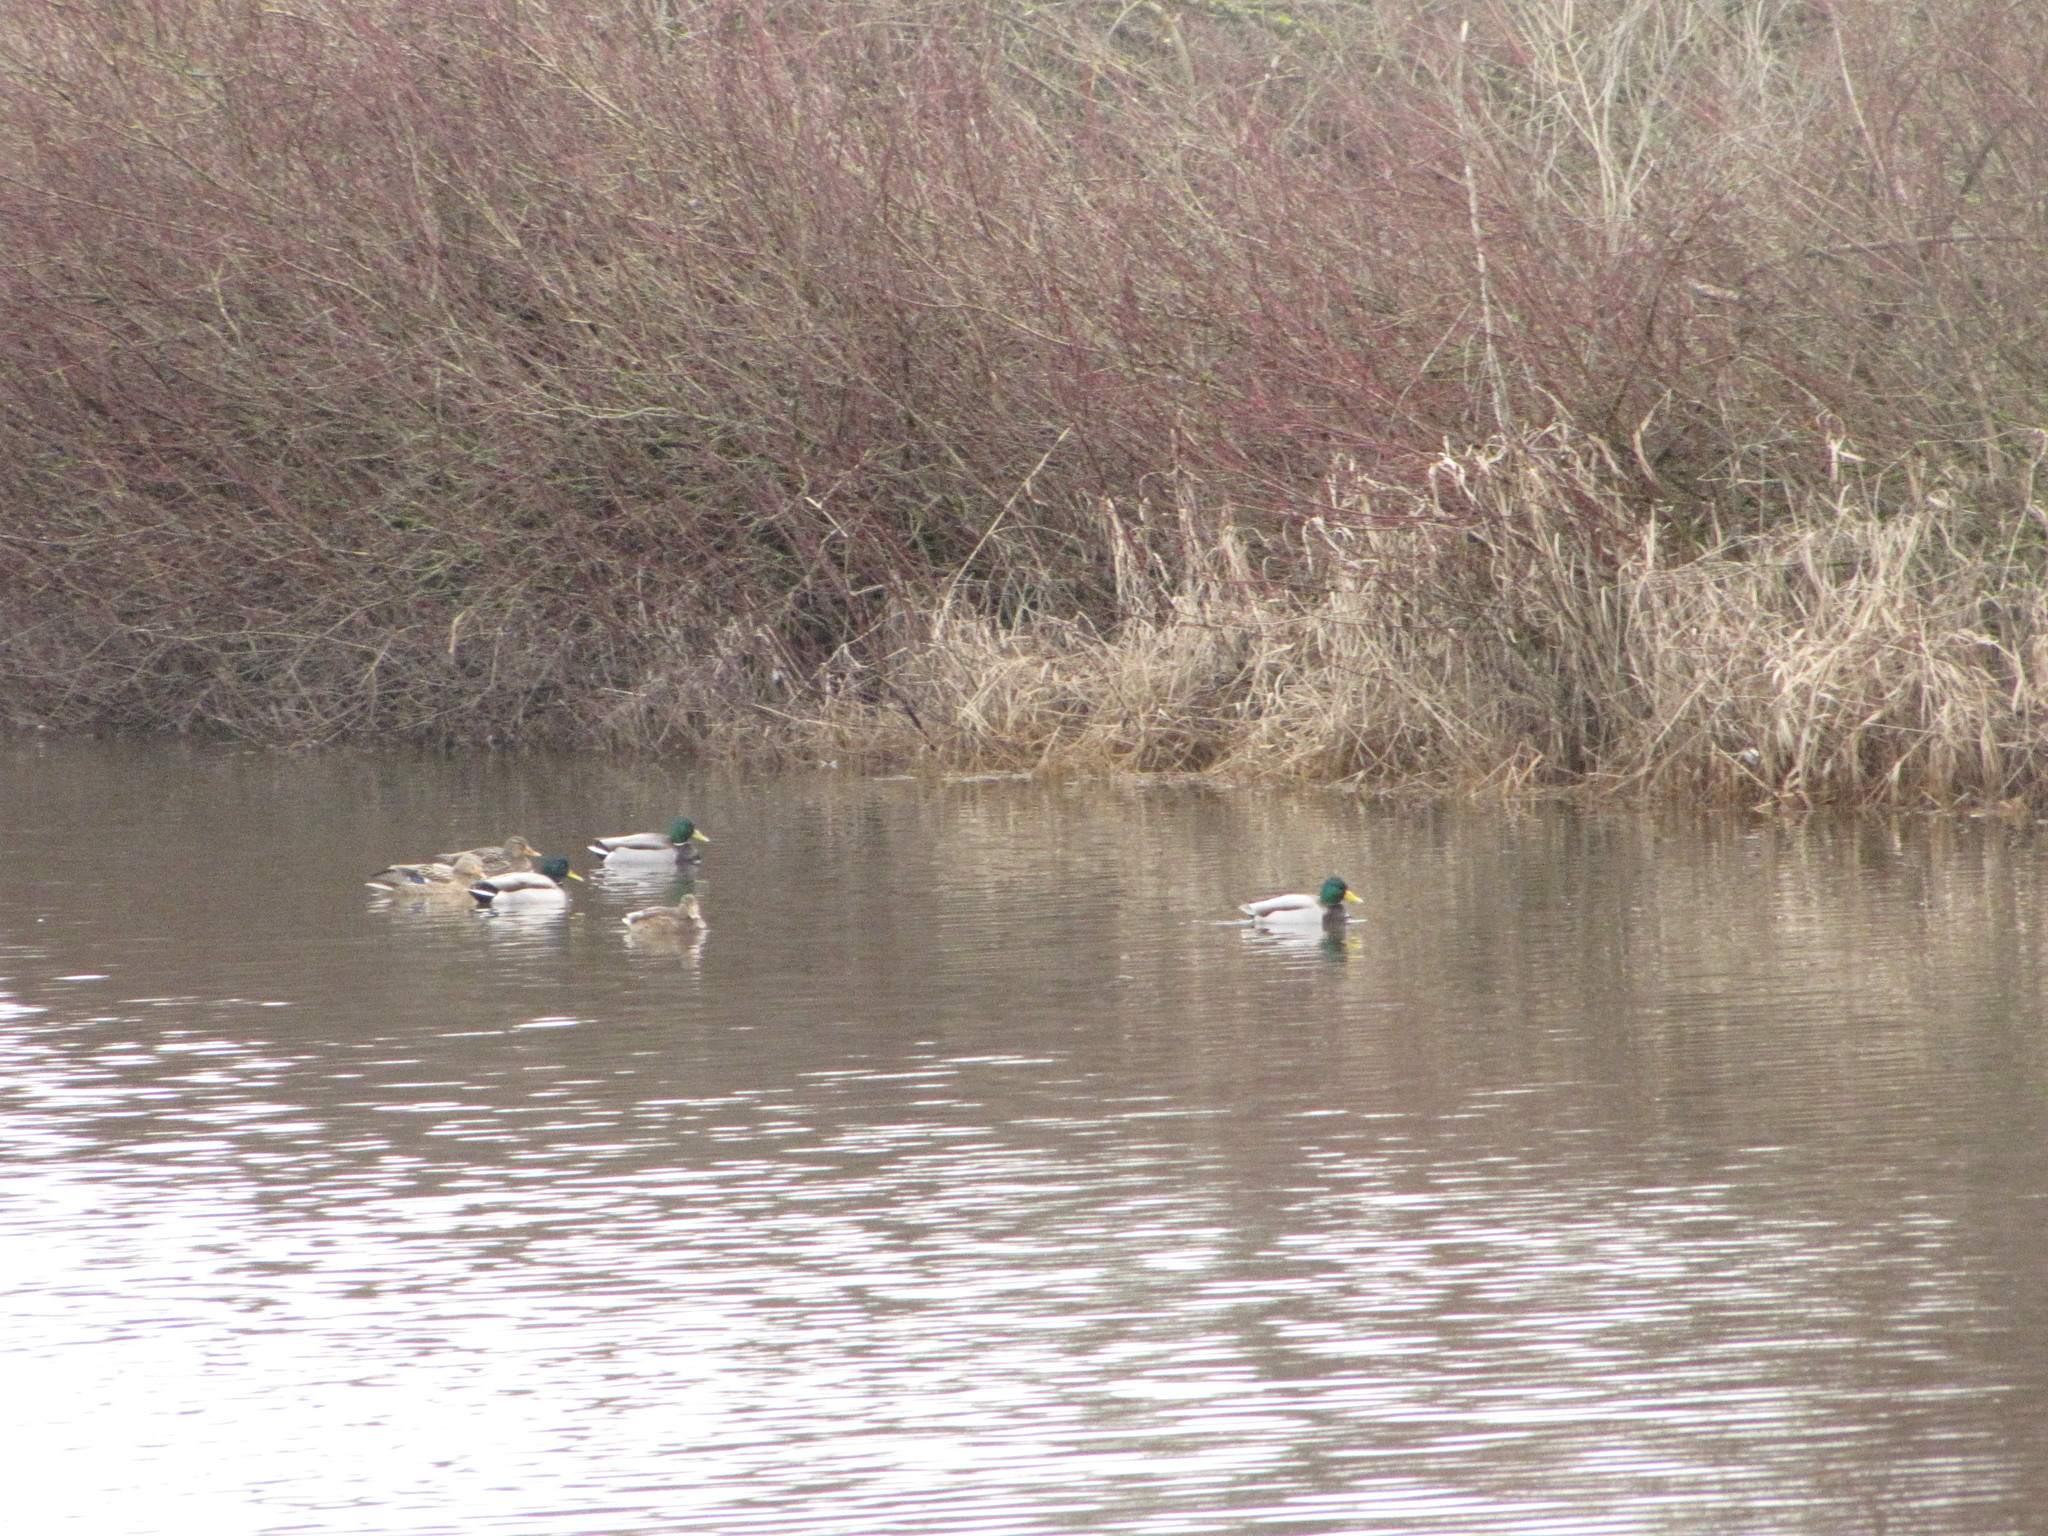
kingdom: Animalia
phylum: Chordata
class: Aves
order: Anseriformes
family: Anatidae
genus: Anas
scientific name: Anas platyrhynchos
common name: Mallard
